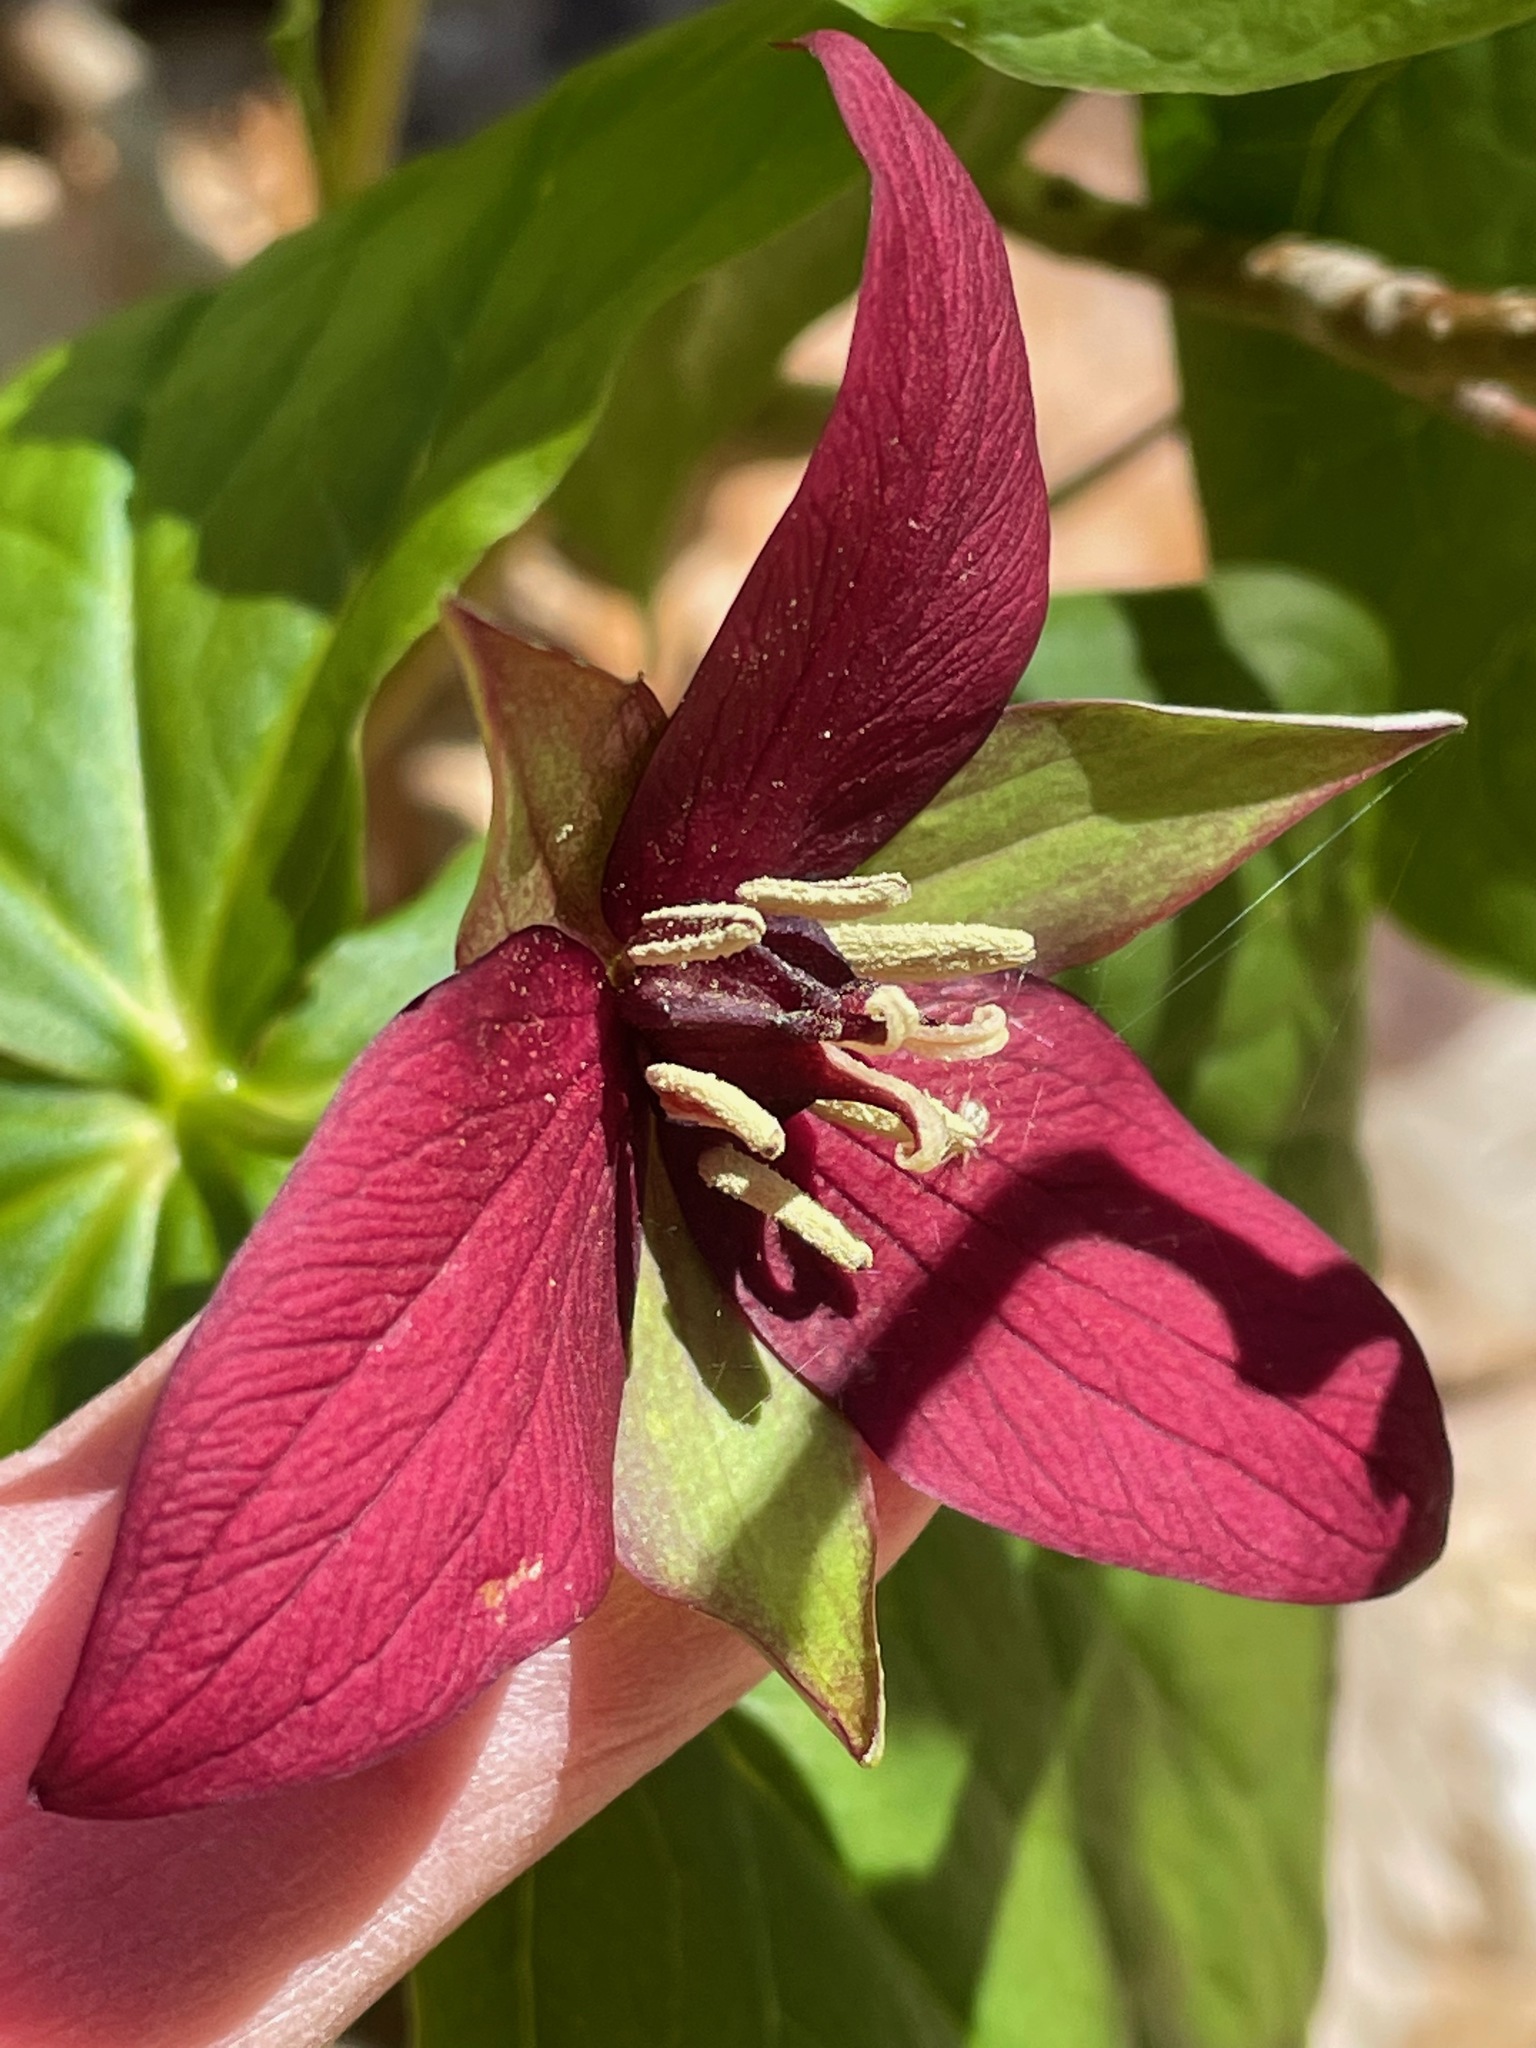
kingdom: Plantae
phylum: Tracheophyta
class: Liliopsida
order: Liliales
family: Melanthiaceae
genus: Trillium
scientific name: Trillium erectum
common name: Purple trillium
